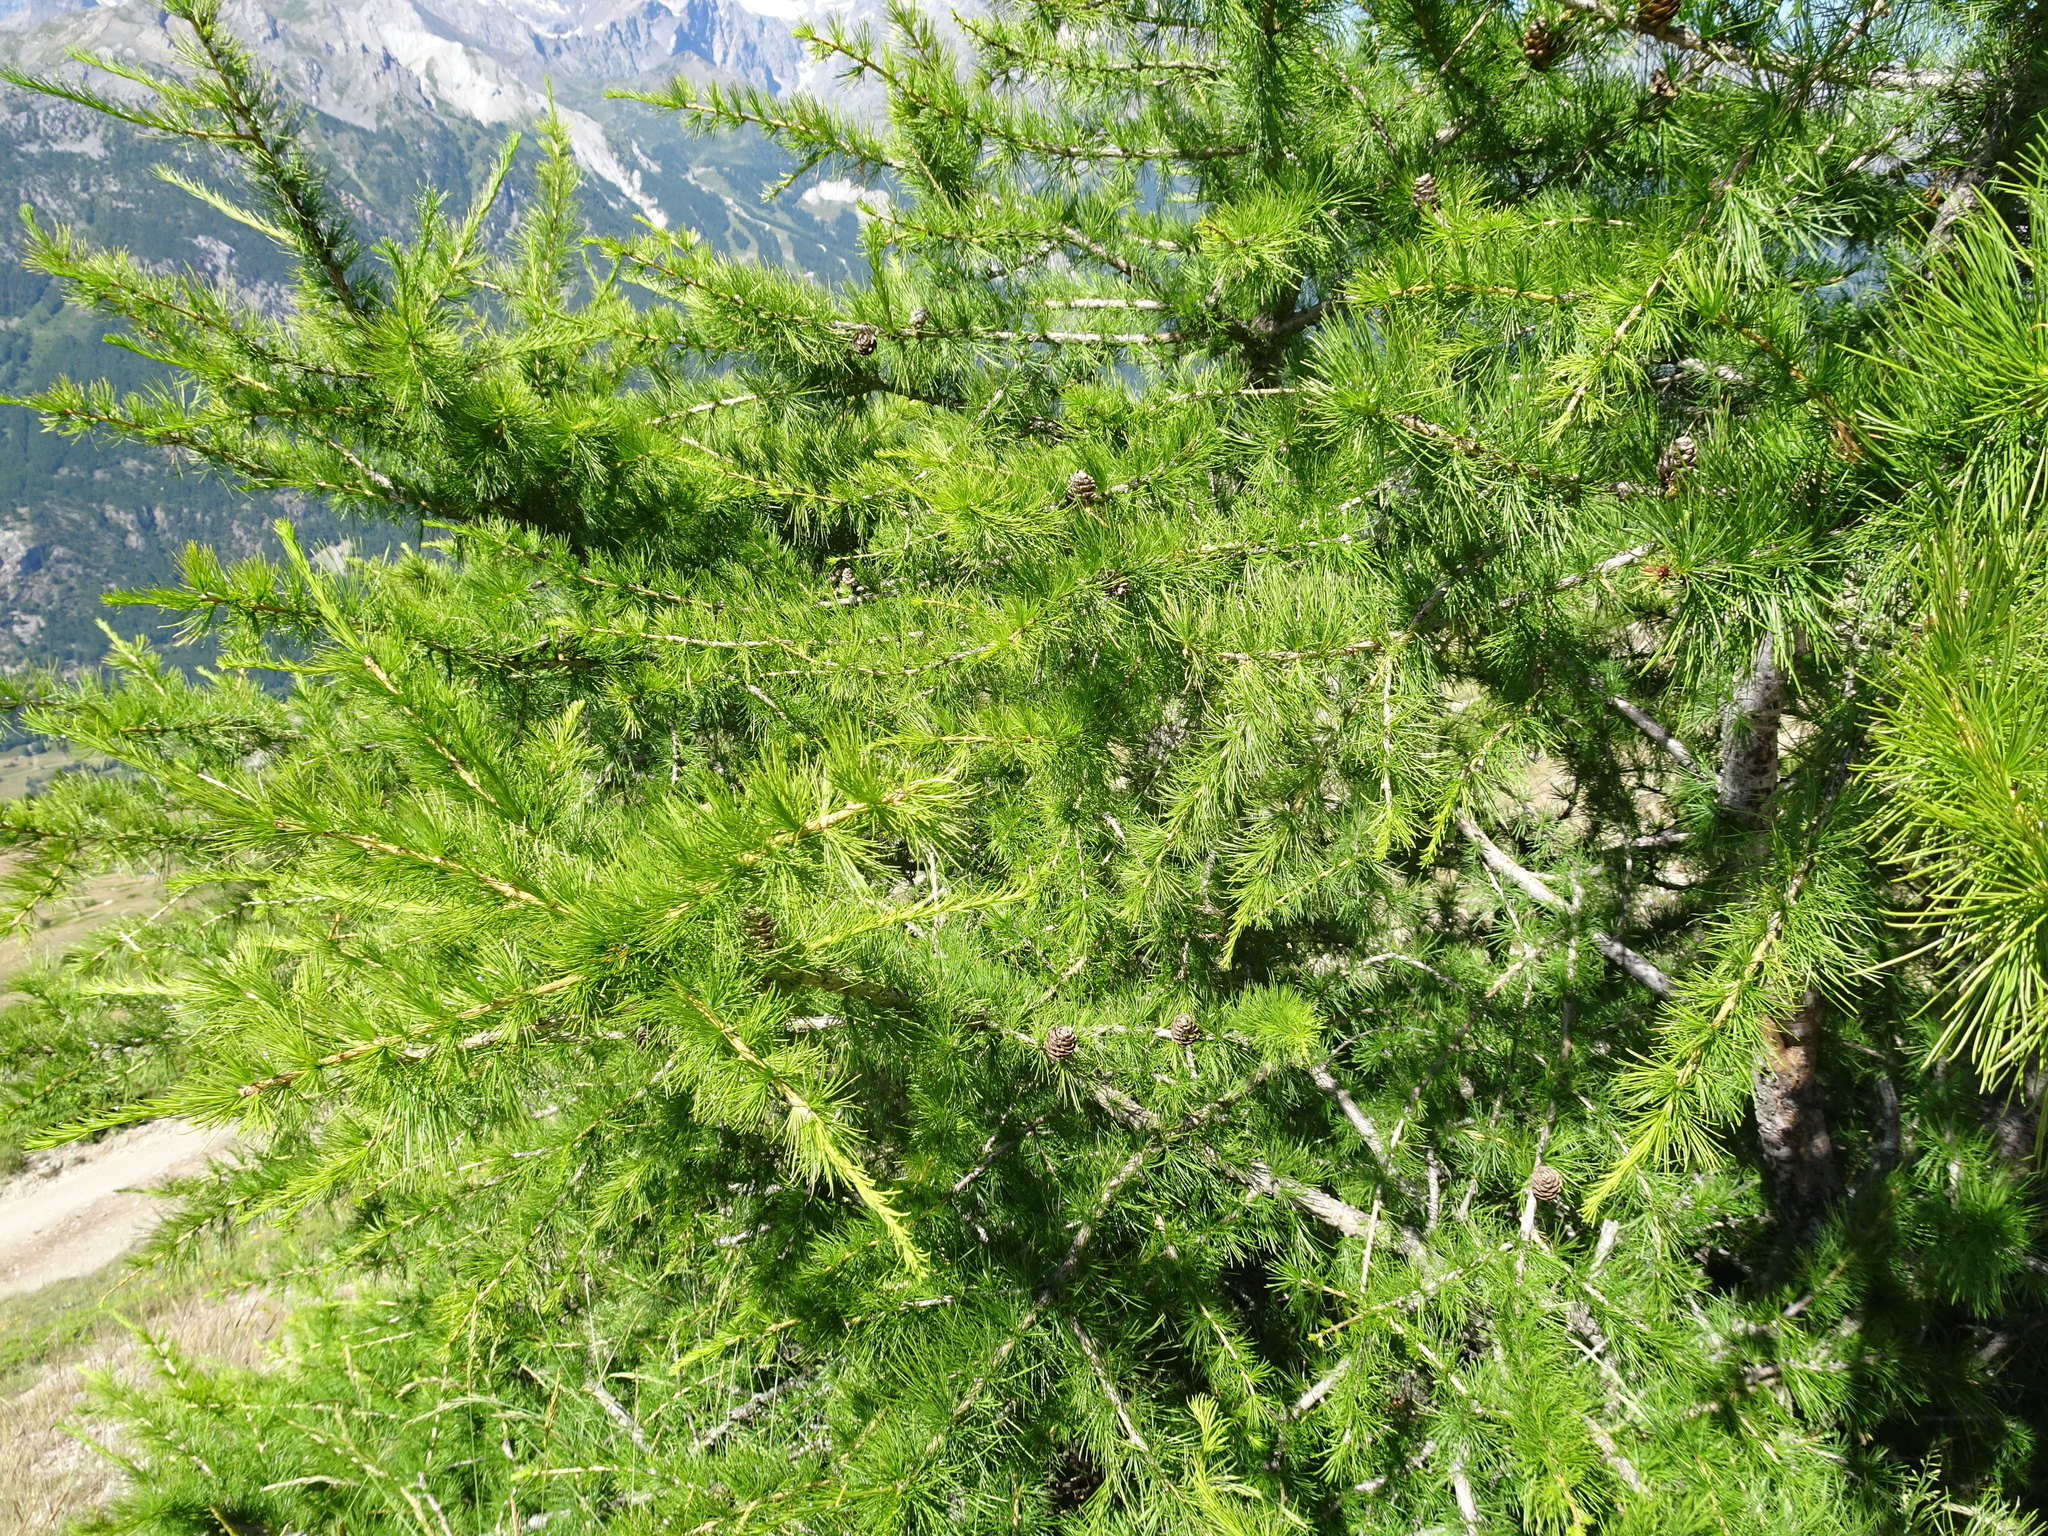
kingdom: Plantae
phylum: Tracheophyta
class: Pinopsida
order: Pinales
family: Pinaceae
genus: Larix
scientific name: Larix decidua
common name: European larch
